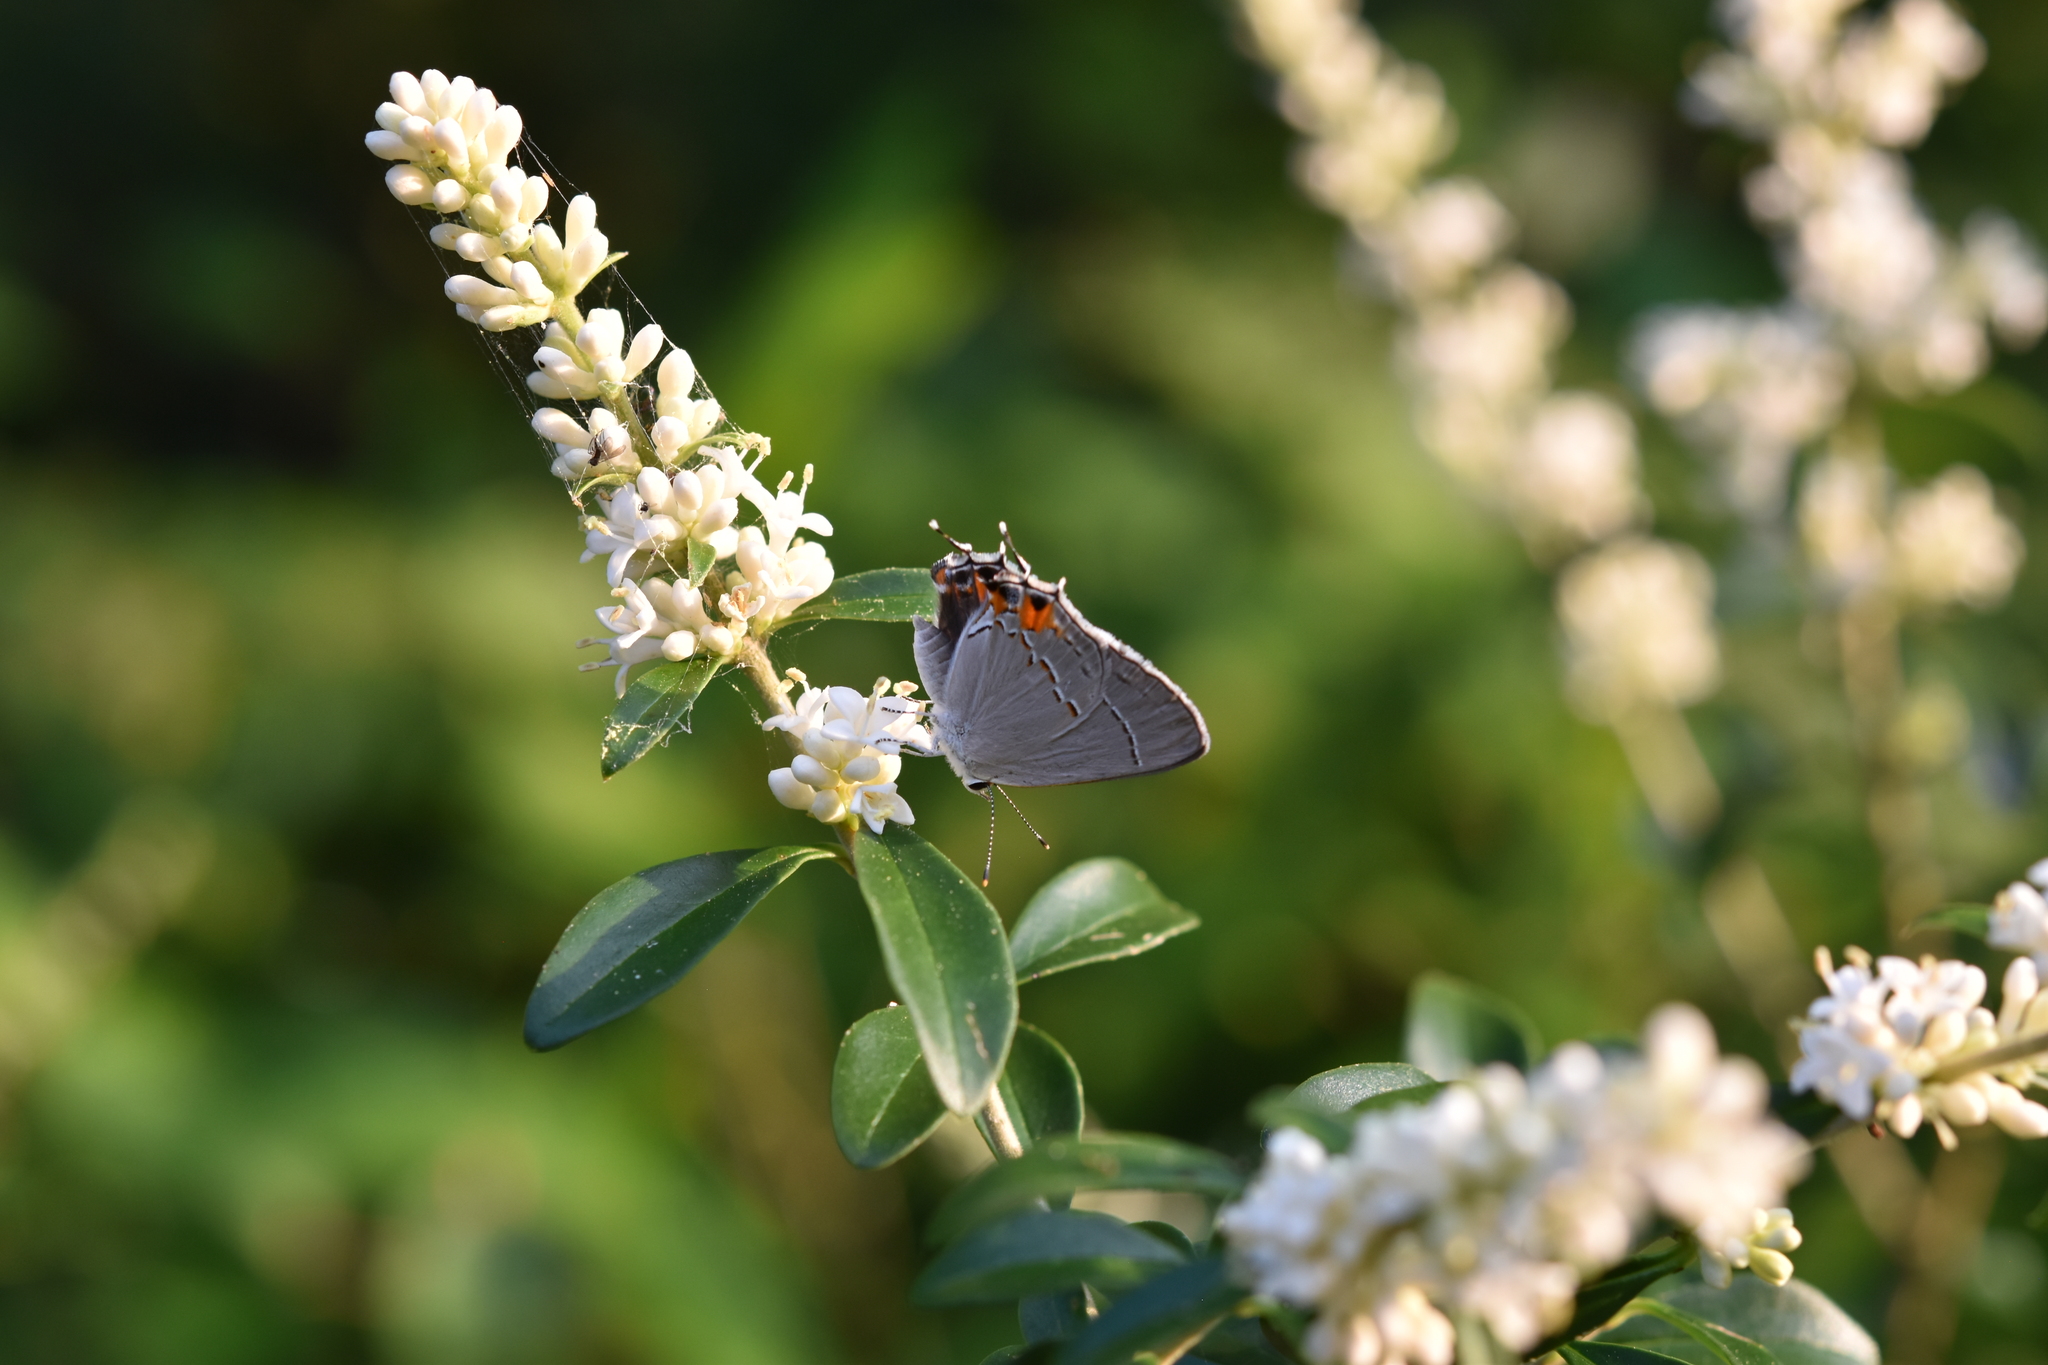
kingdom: Animalia
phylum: Arthropoda
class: Insecta
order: Lepidoptera
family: Lycaenidae
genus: Strymon
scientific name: Strymon melinus
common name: Gray hairstreak
